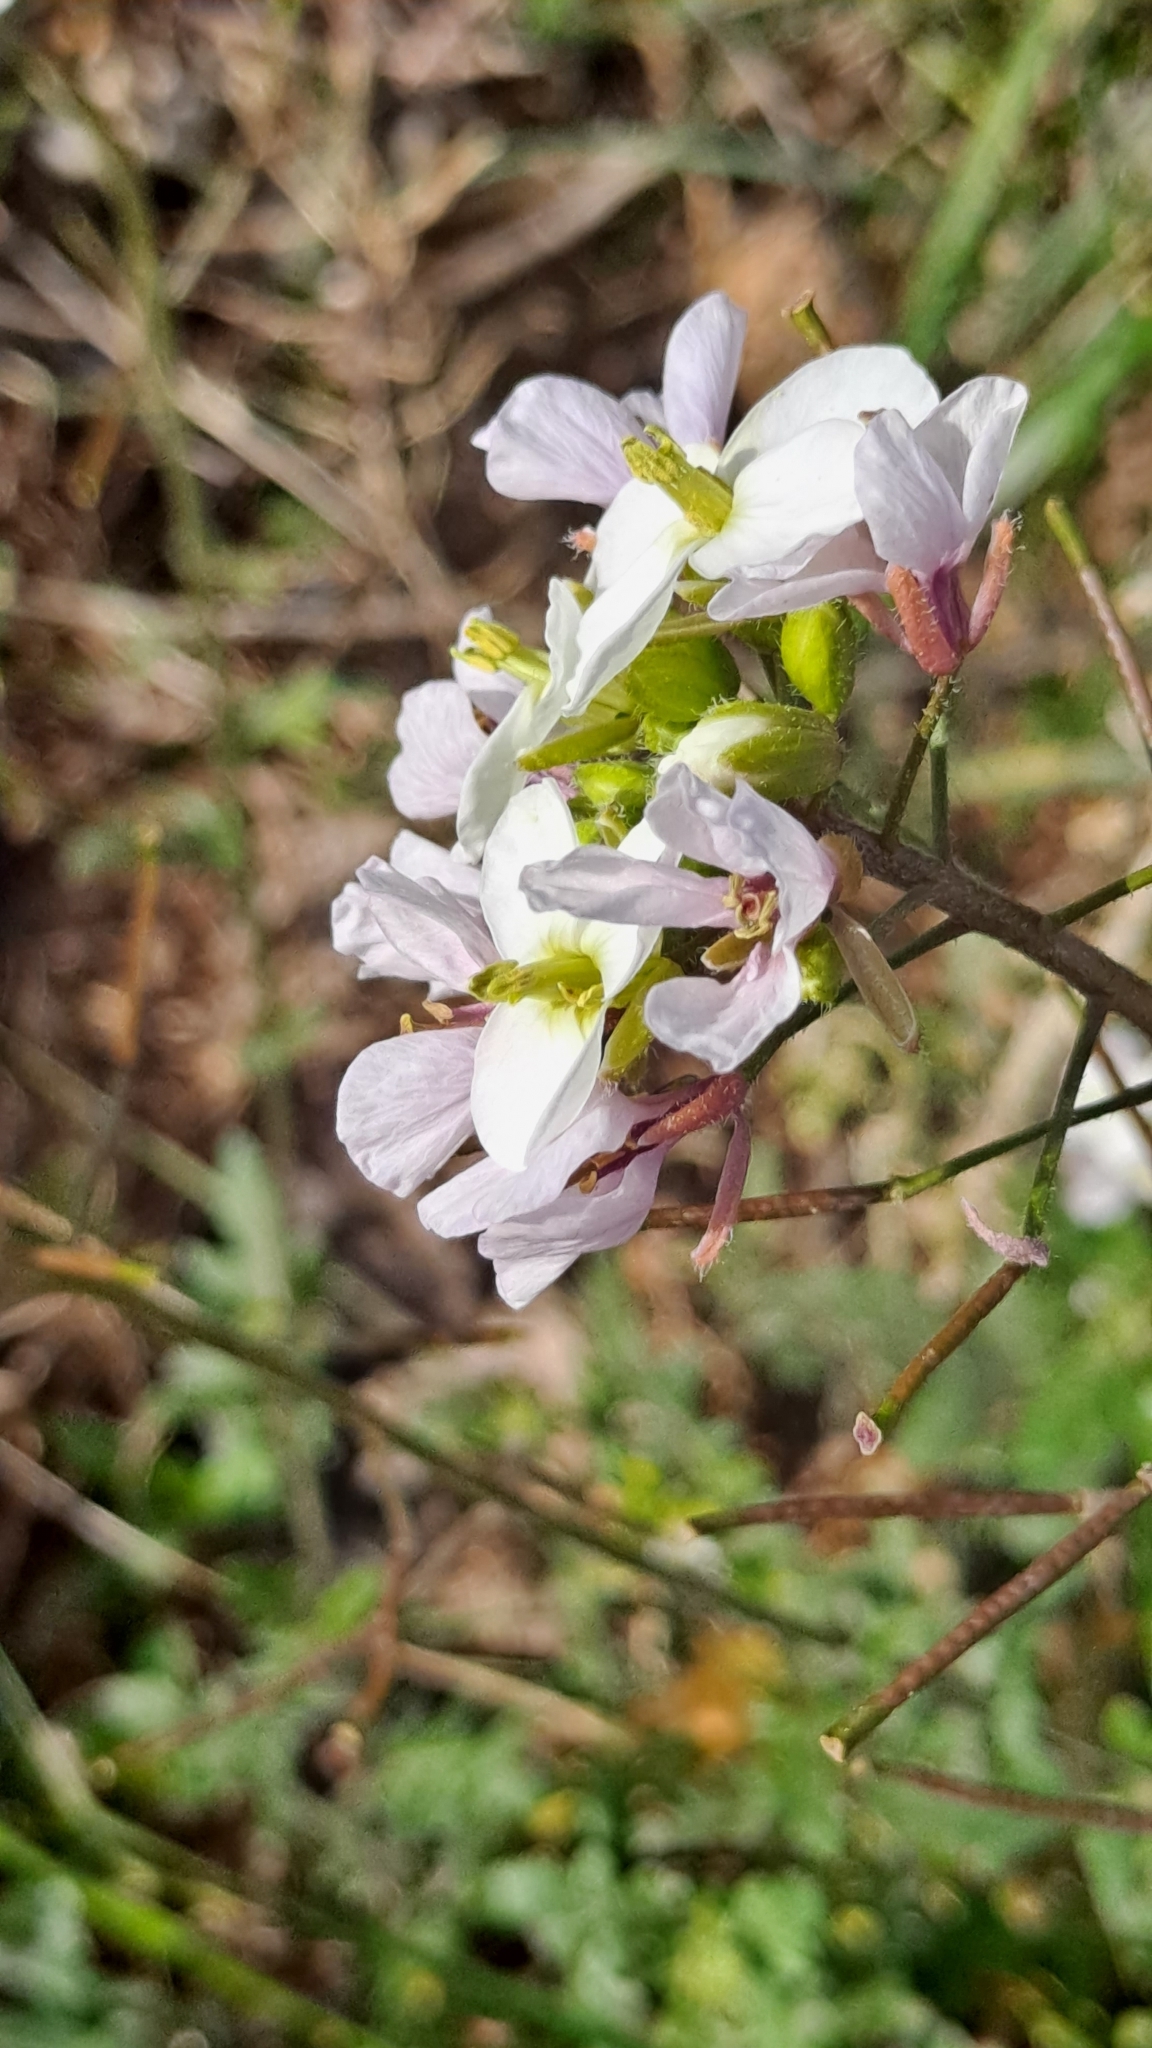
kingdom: Plantae
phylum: Tracheophyta
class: Magnoliopsida
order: Brassicales
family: Brassicaceae
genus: Diplotaxis
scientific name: Diplotaxis erucoides
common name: White rocket
